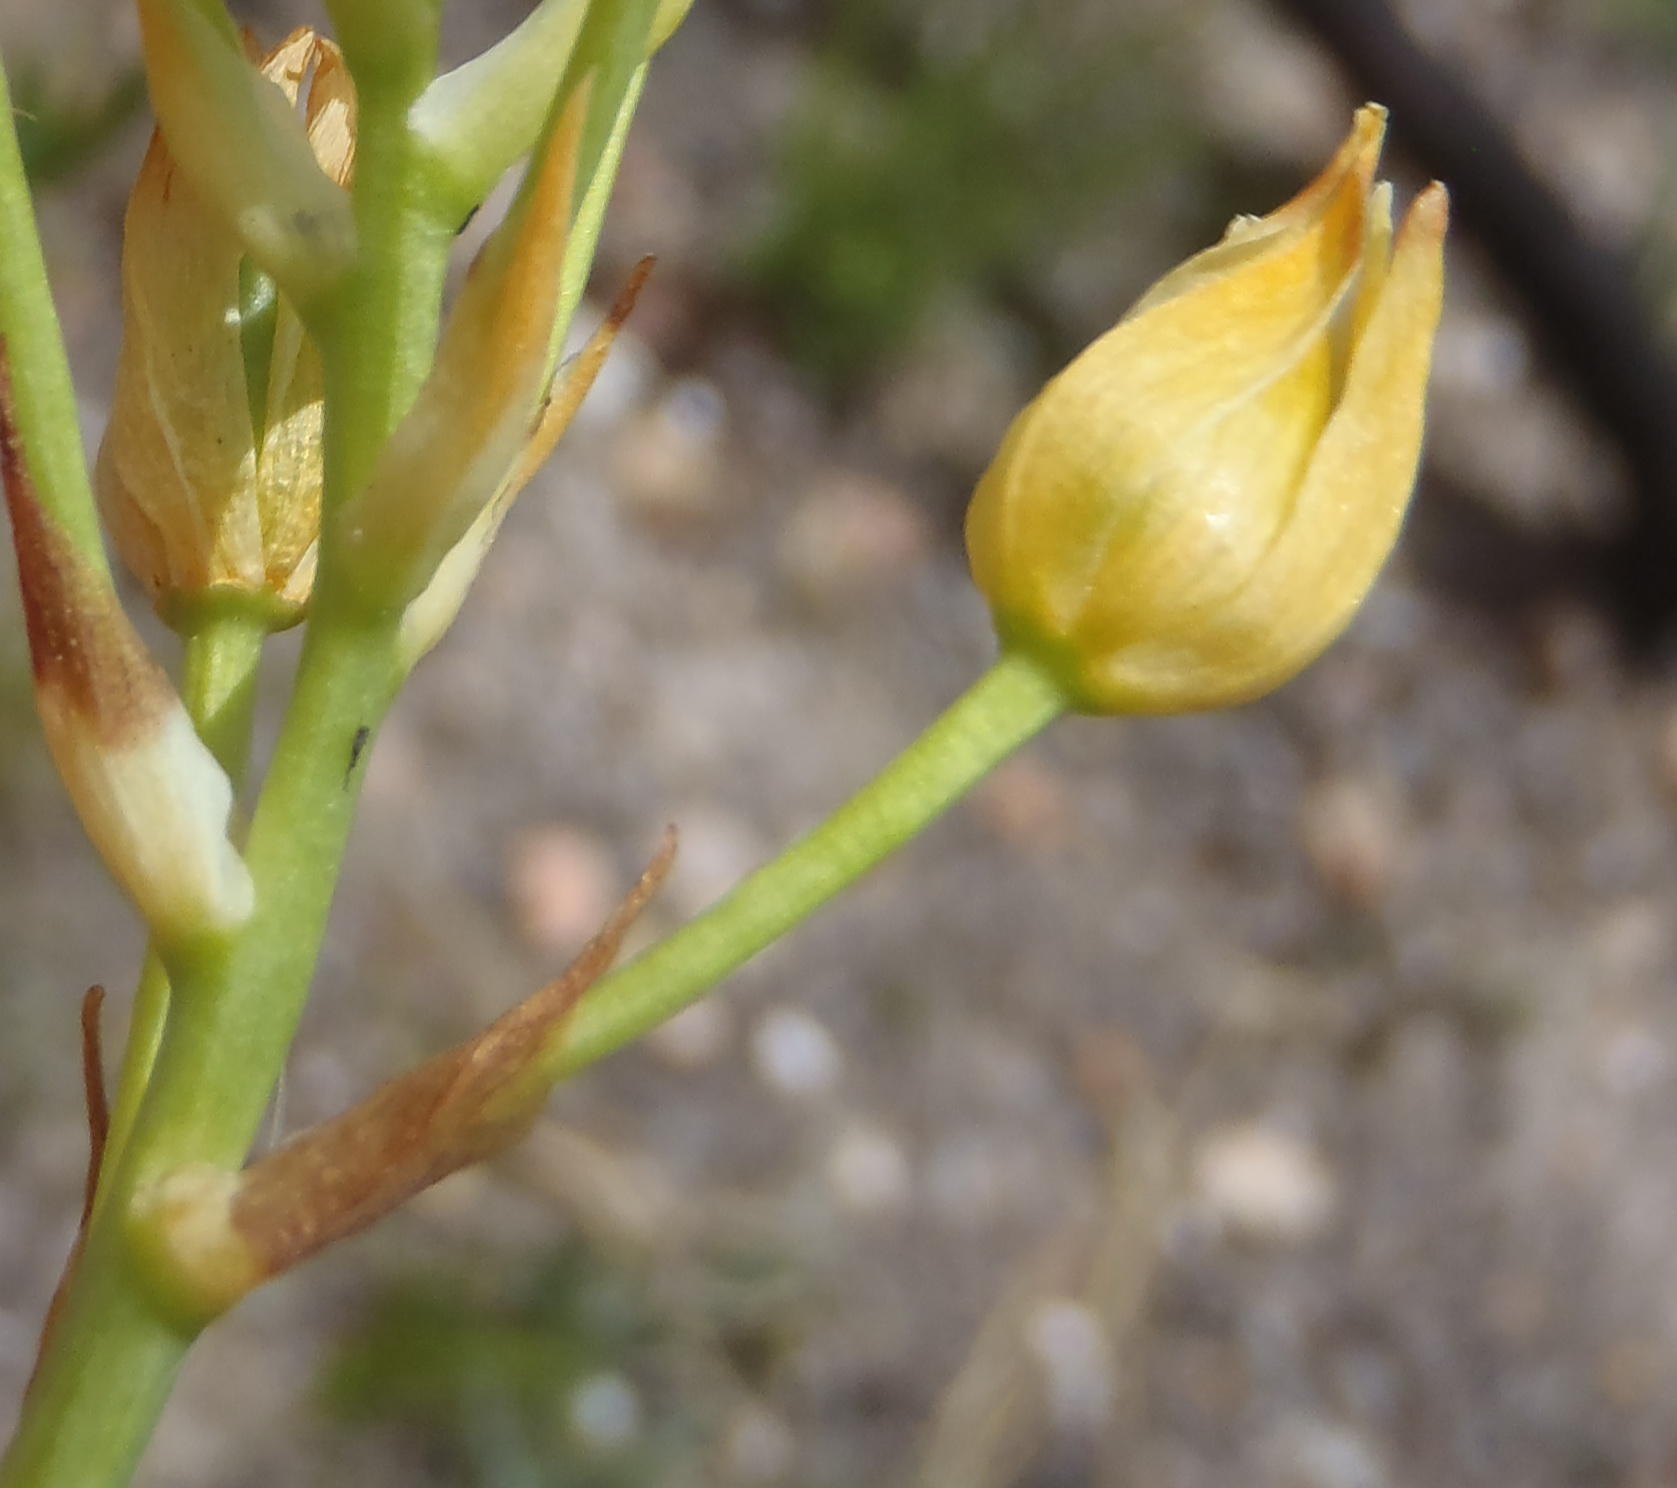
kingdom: Plantae
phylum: Tracheophyta
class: Liliopsida
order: Asparagales
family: Asparagaceae
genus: Ornithogalum
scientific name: Ornithogalum dubium
